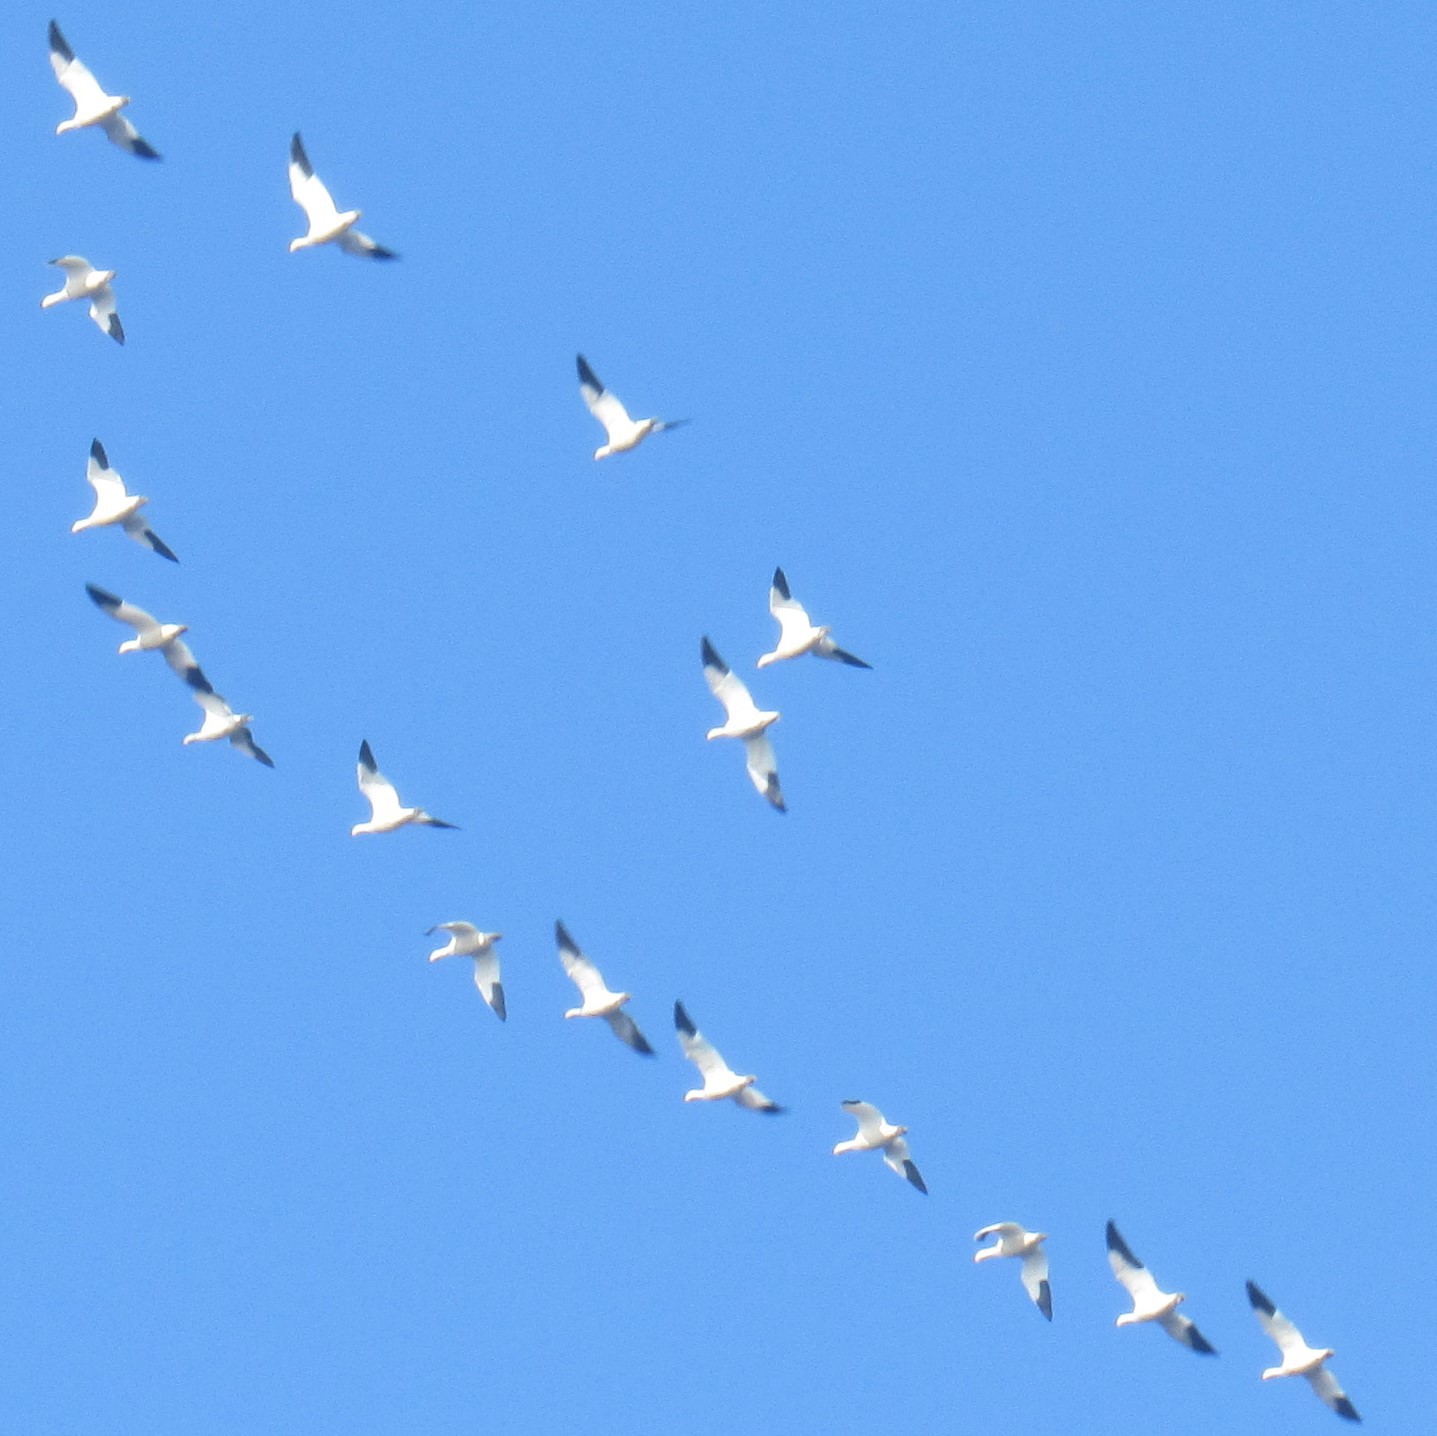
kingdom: Animalia
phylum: Chordata
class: Aves
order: Anseriformes
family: Anatidae
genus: Anser
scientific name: Anser caerulescens
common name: Snow goose
